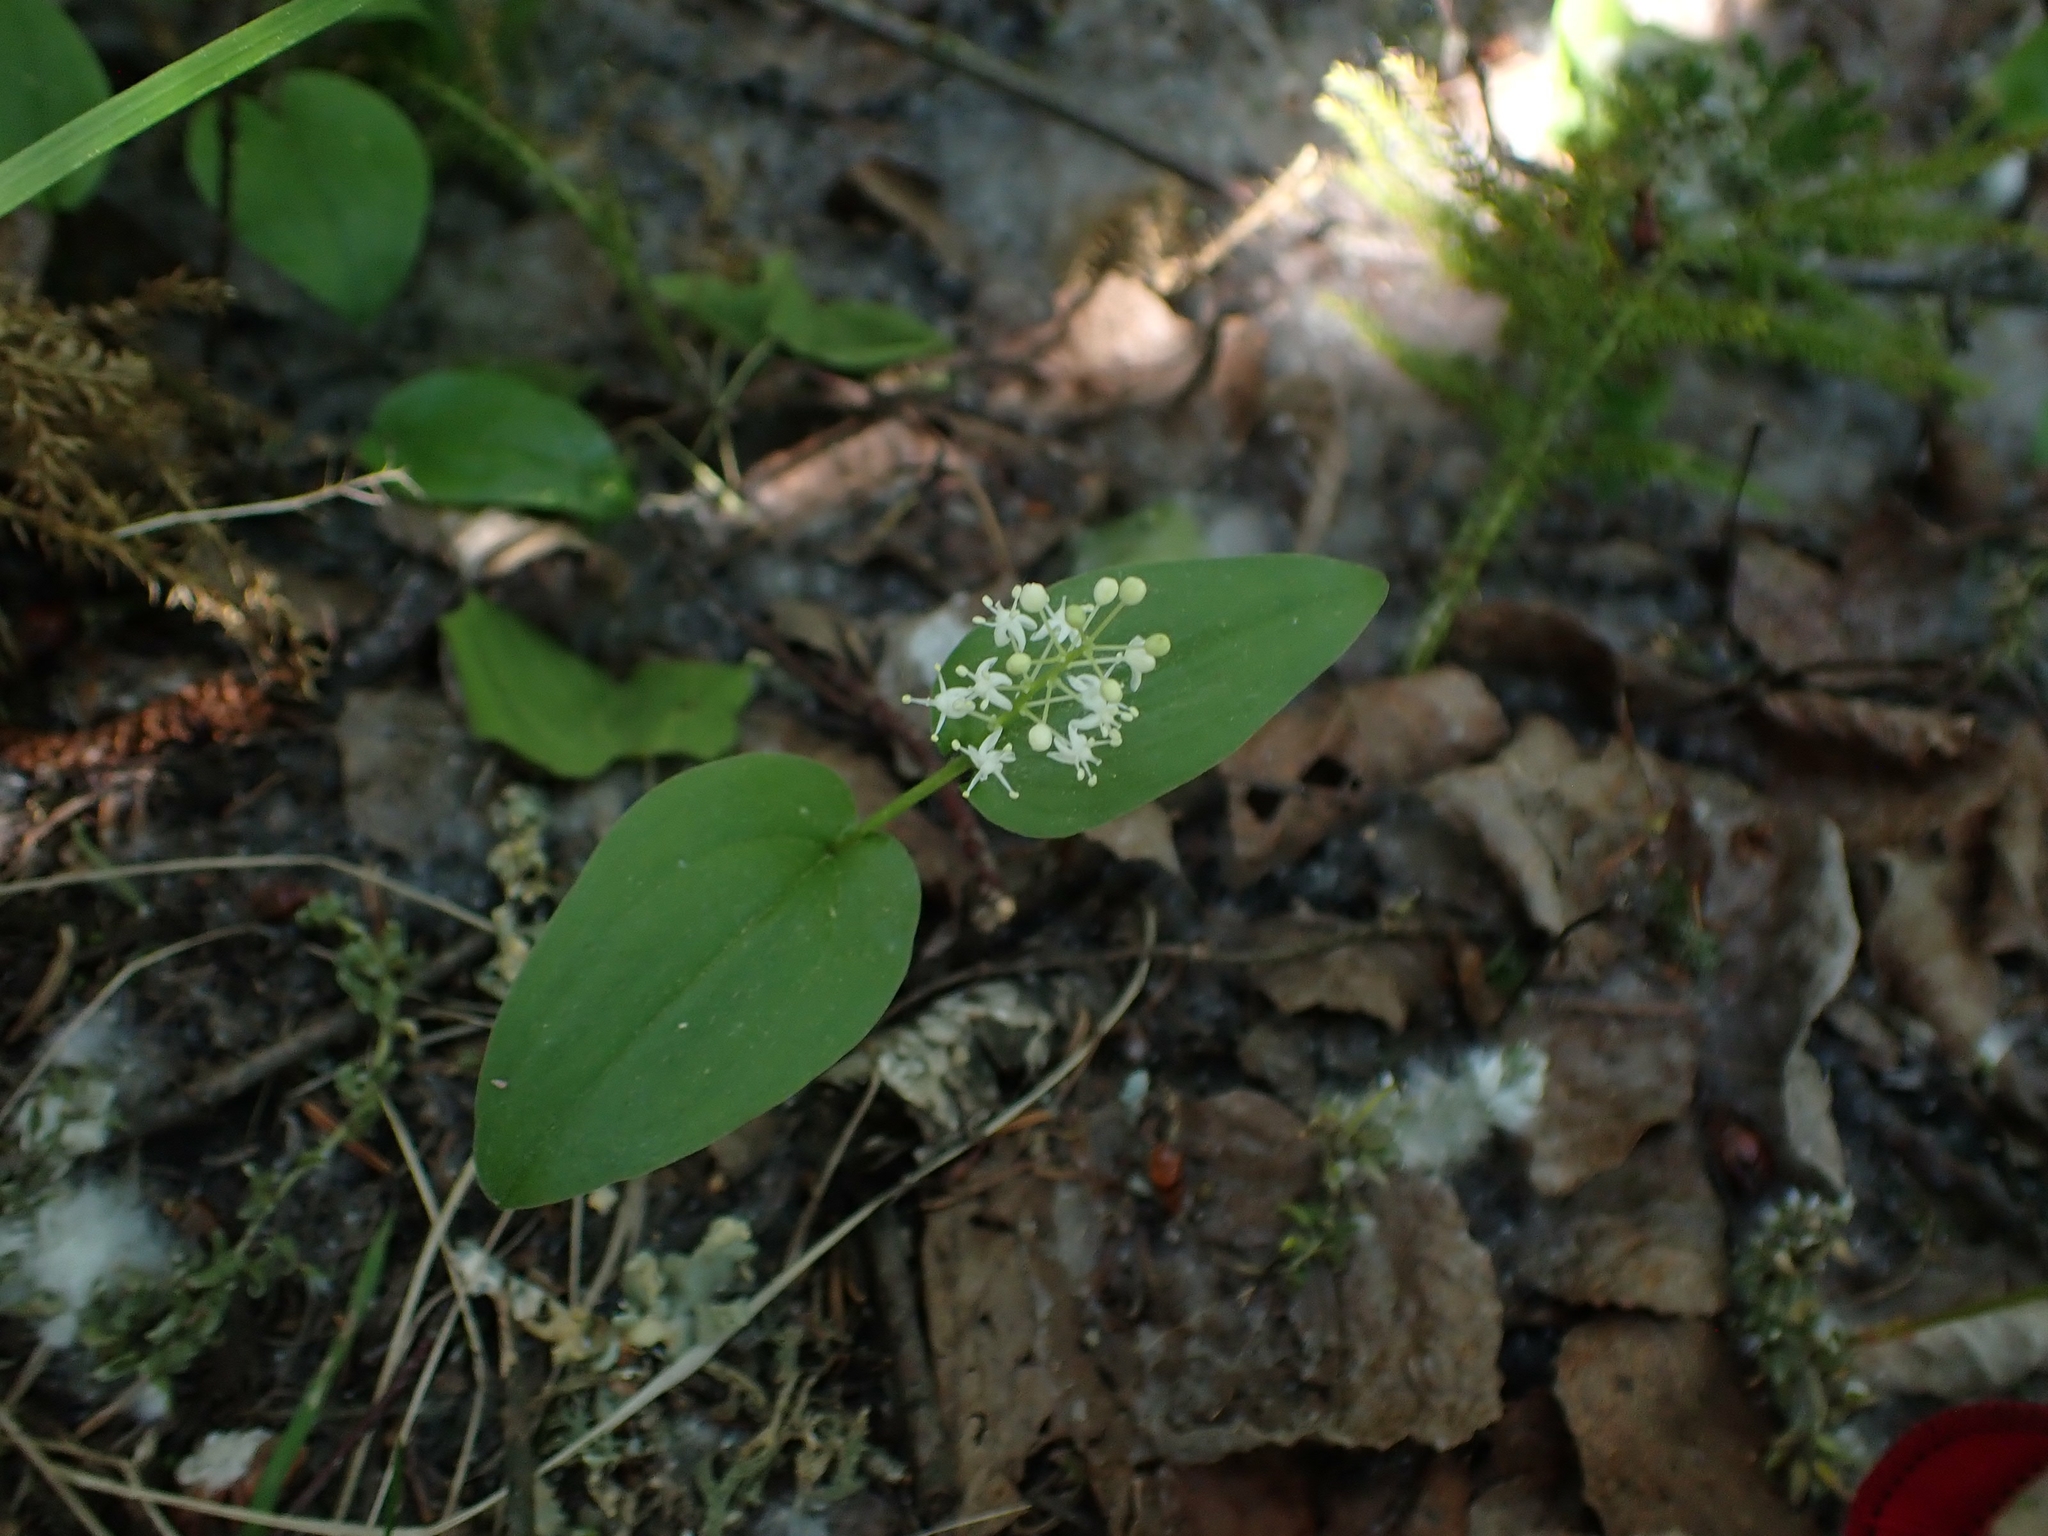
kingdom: Plantae
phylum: Tracheophyta
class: Liliopsida
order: Asparagales
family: Asparagaceae
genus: Maianthemum
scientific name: Maianthemum canadense
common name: False lily-of-the-valley
